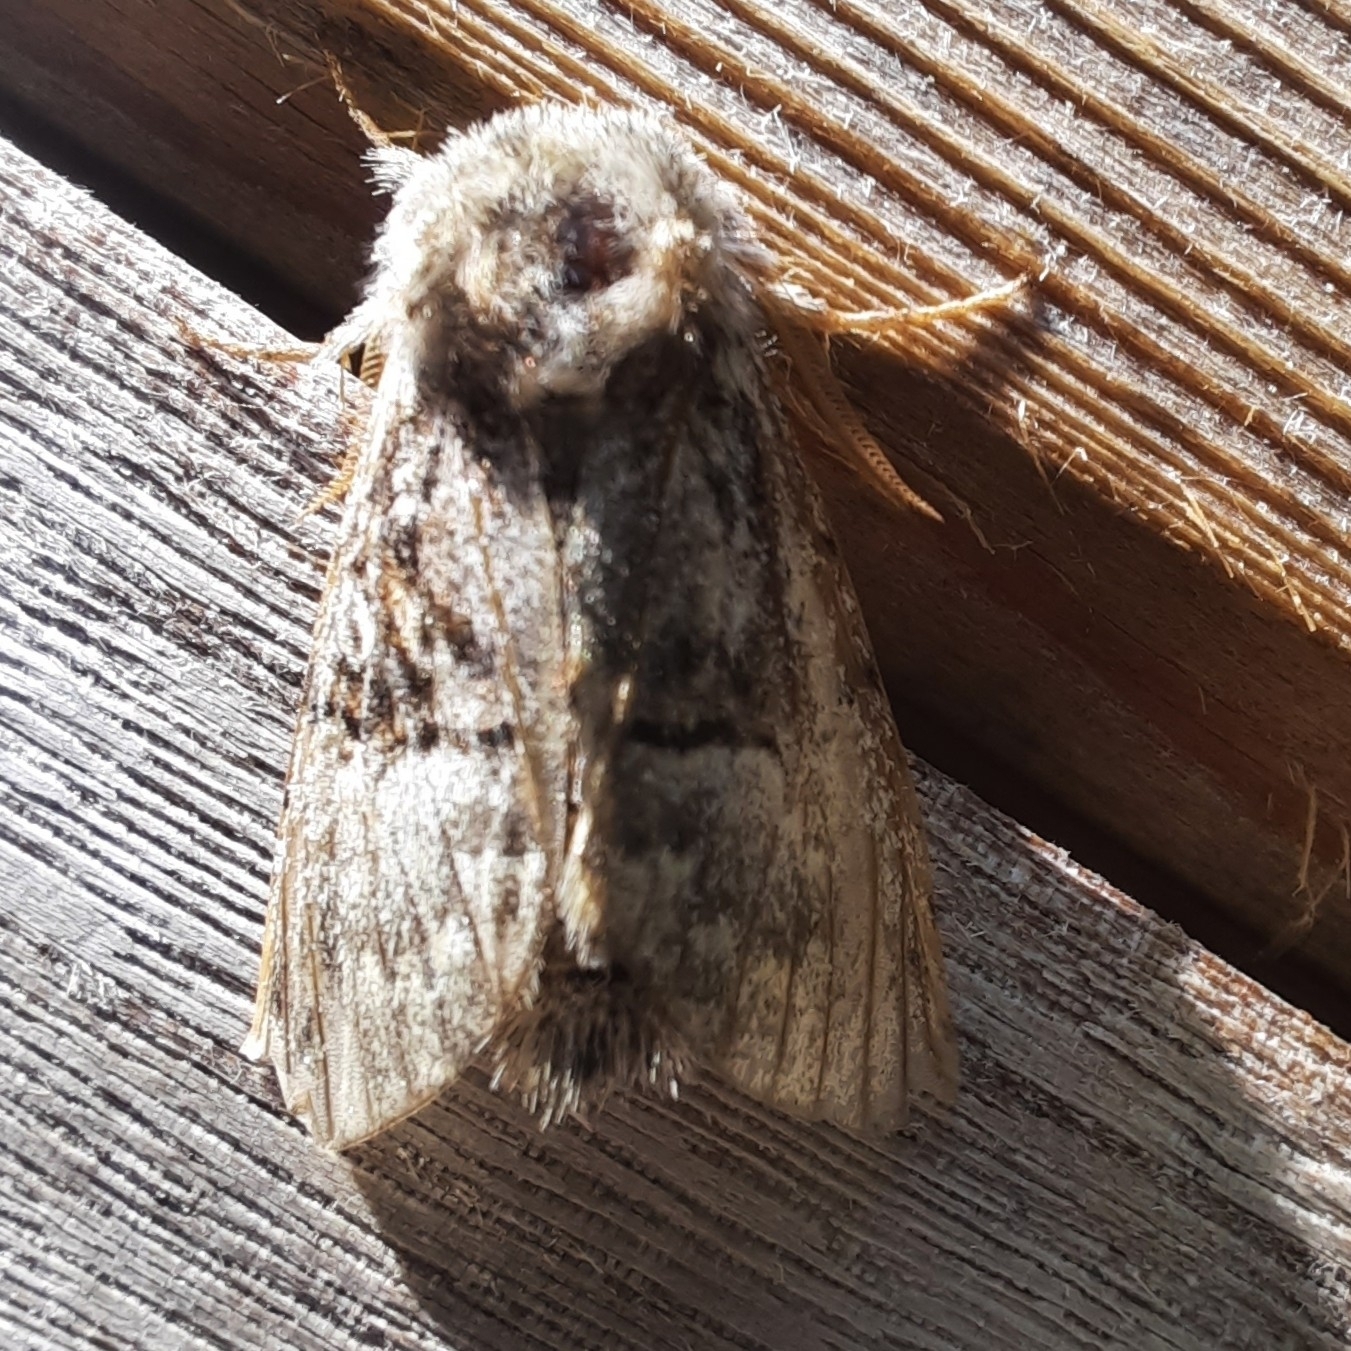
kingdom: Animalia
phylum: Arthropoda
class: Insecta
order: Lepidoptera
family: Noctuidae
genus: Colocasia
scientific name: Colocasia coryli
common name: Nut-tree tussock
